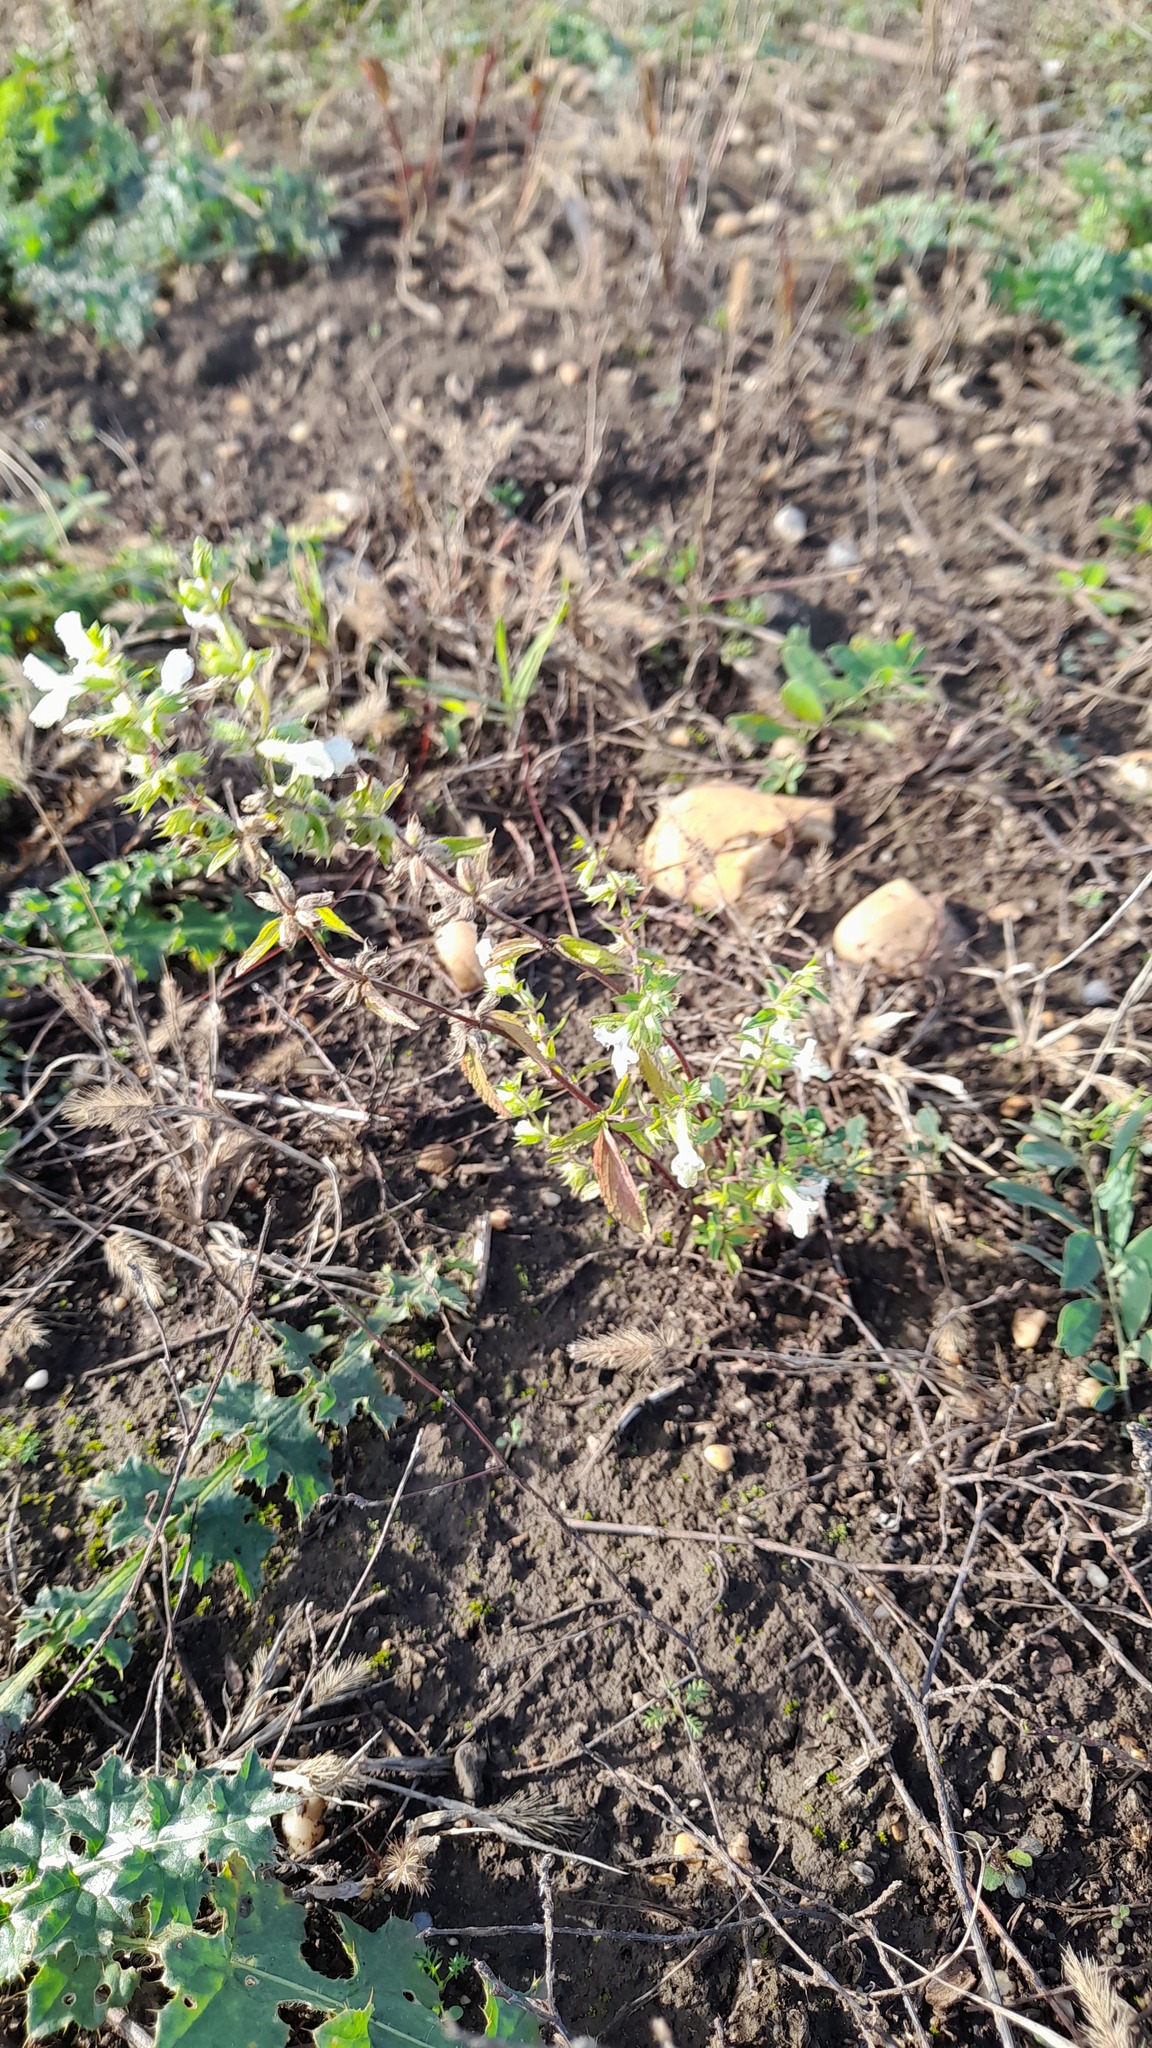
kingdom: Plantae
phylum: Tracheophyta
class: Magnoliopsida
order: Lamiales
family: Lamiaceae
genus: Stachys
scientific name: Stachys annua
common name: Annual yellow-woundwort
